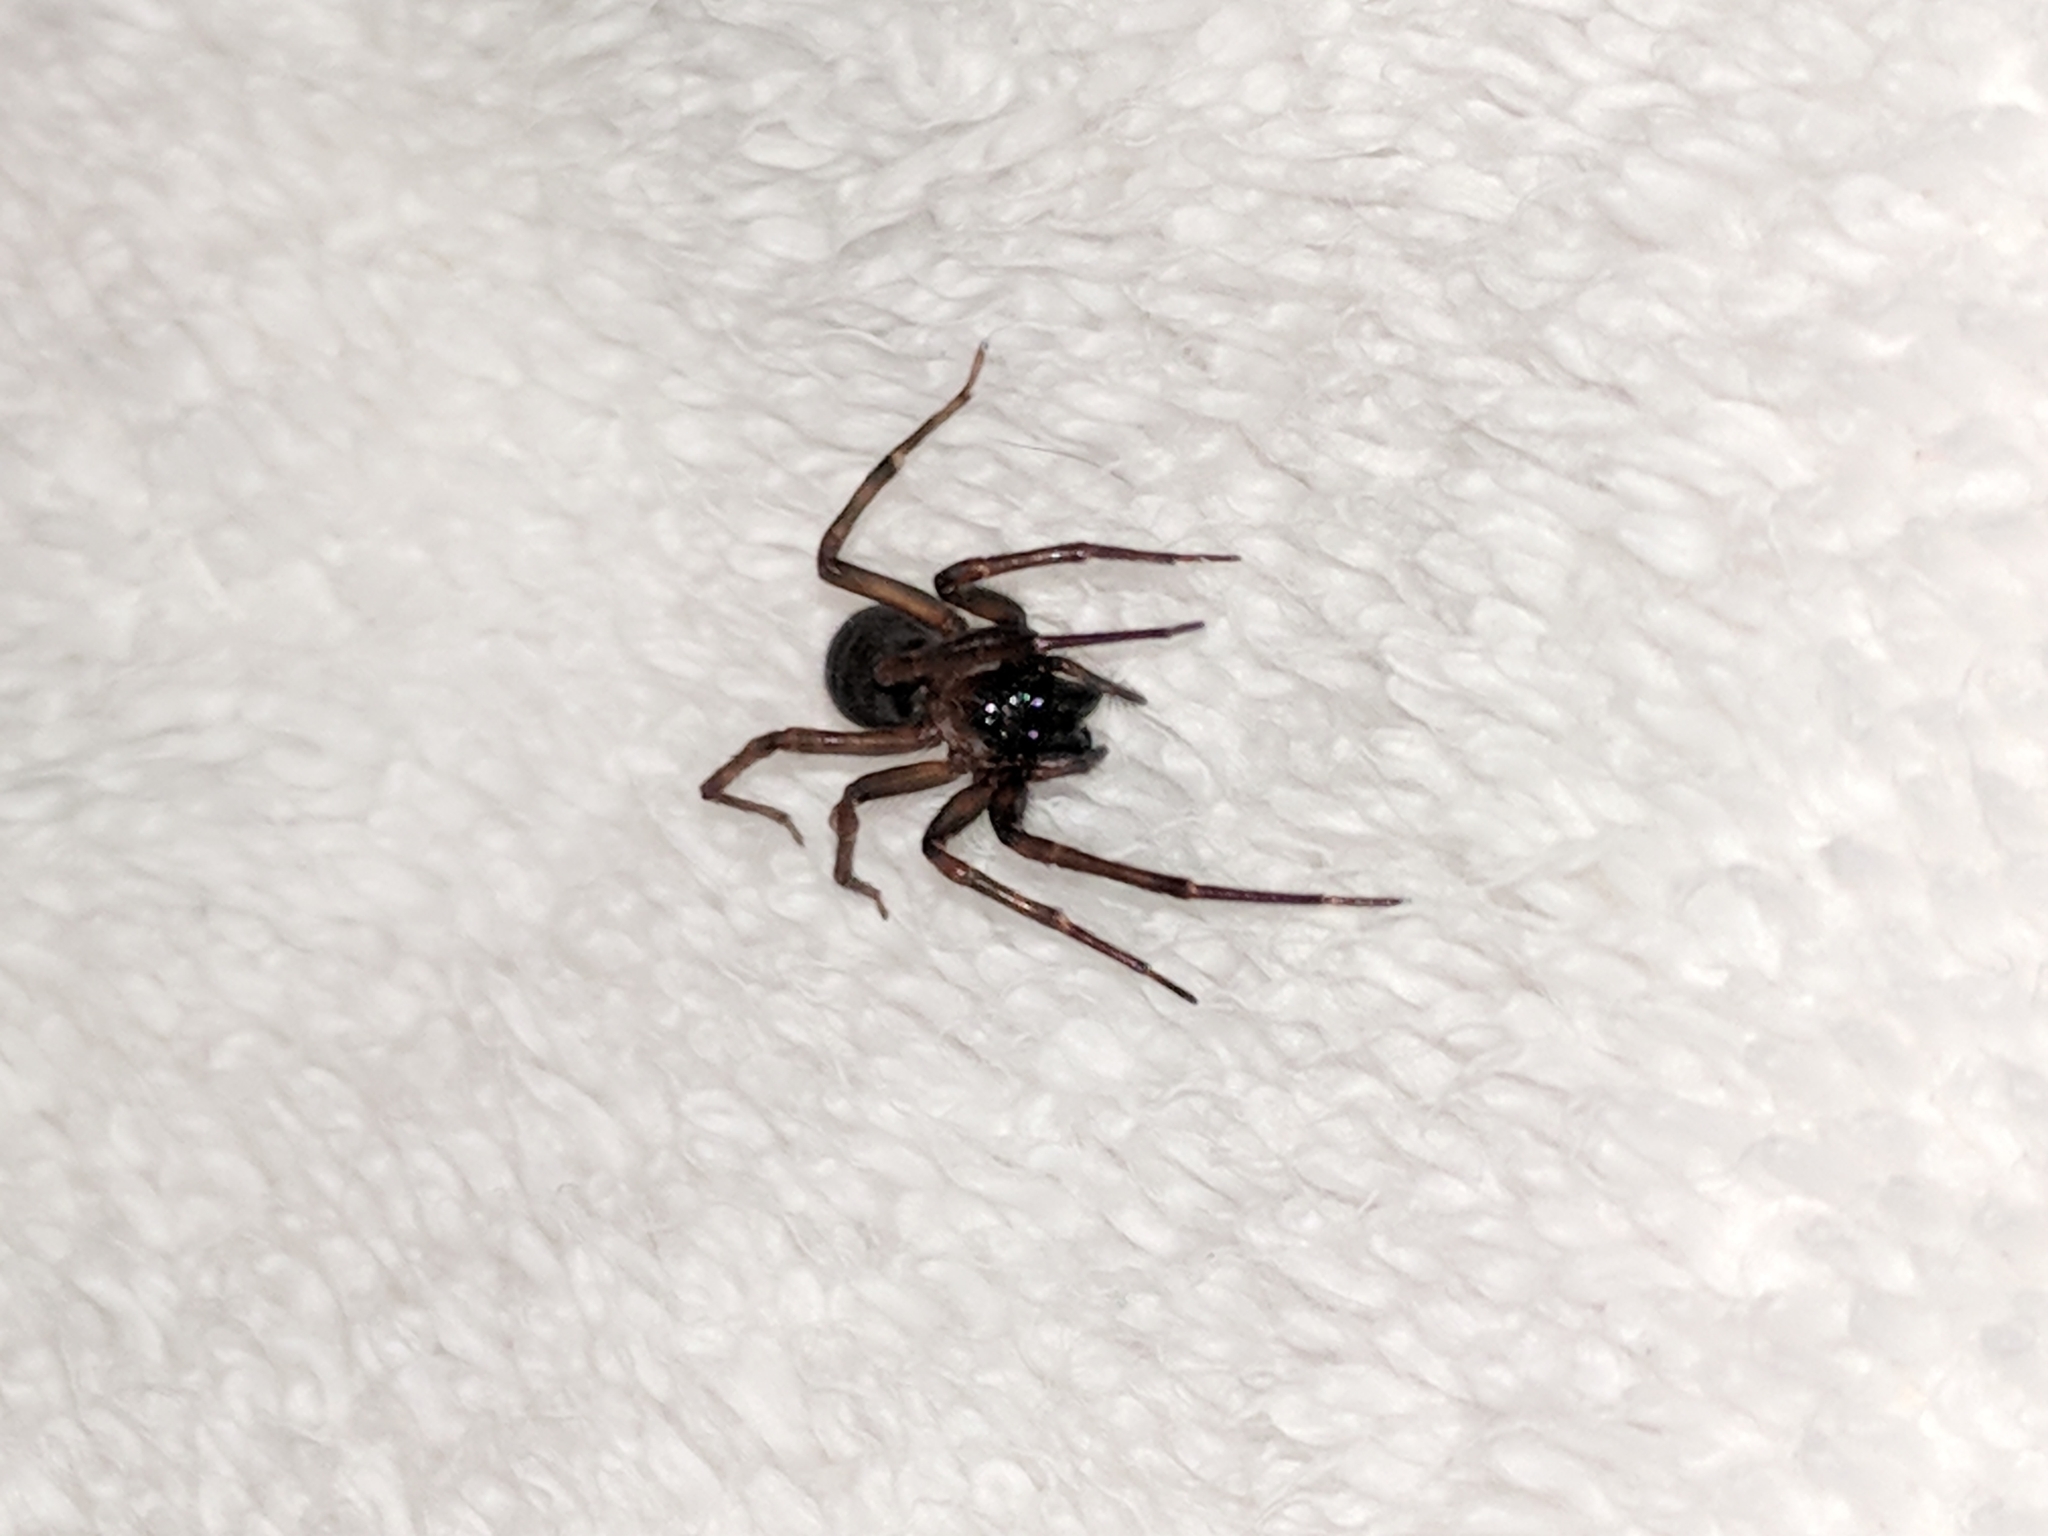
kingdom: Animalia
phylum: Arthropoda
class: Arachnida
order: Araneae
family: Desidae
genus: Metaltella
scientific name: Metaltella simoni
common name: Cribellate spider
